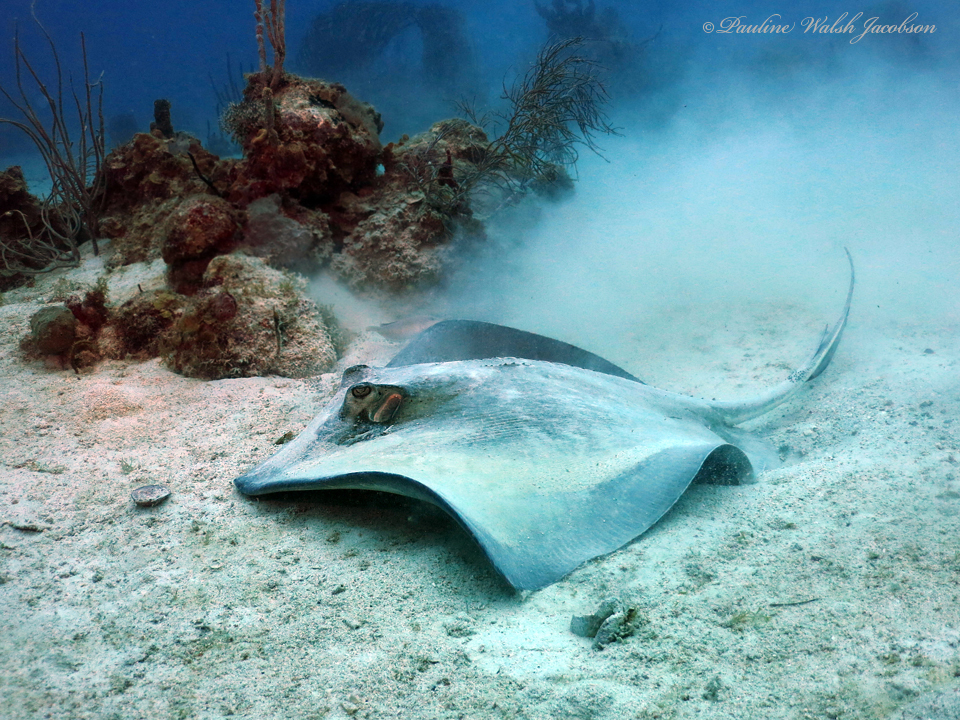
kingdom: Animalia
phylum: Chordata
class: Elasmobranchii
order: Myliobatiformes
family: Dasyatidae
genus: Hypanus
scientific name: Hypanus americanus
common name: Southern stingray
